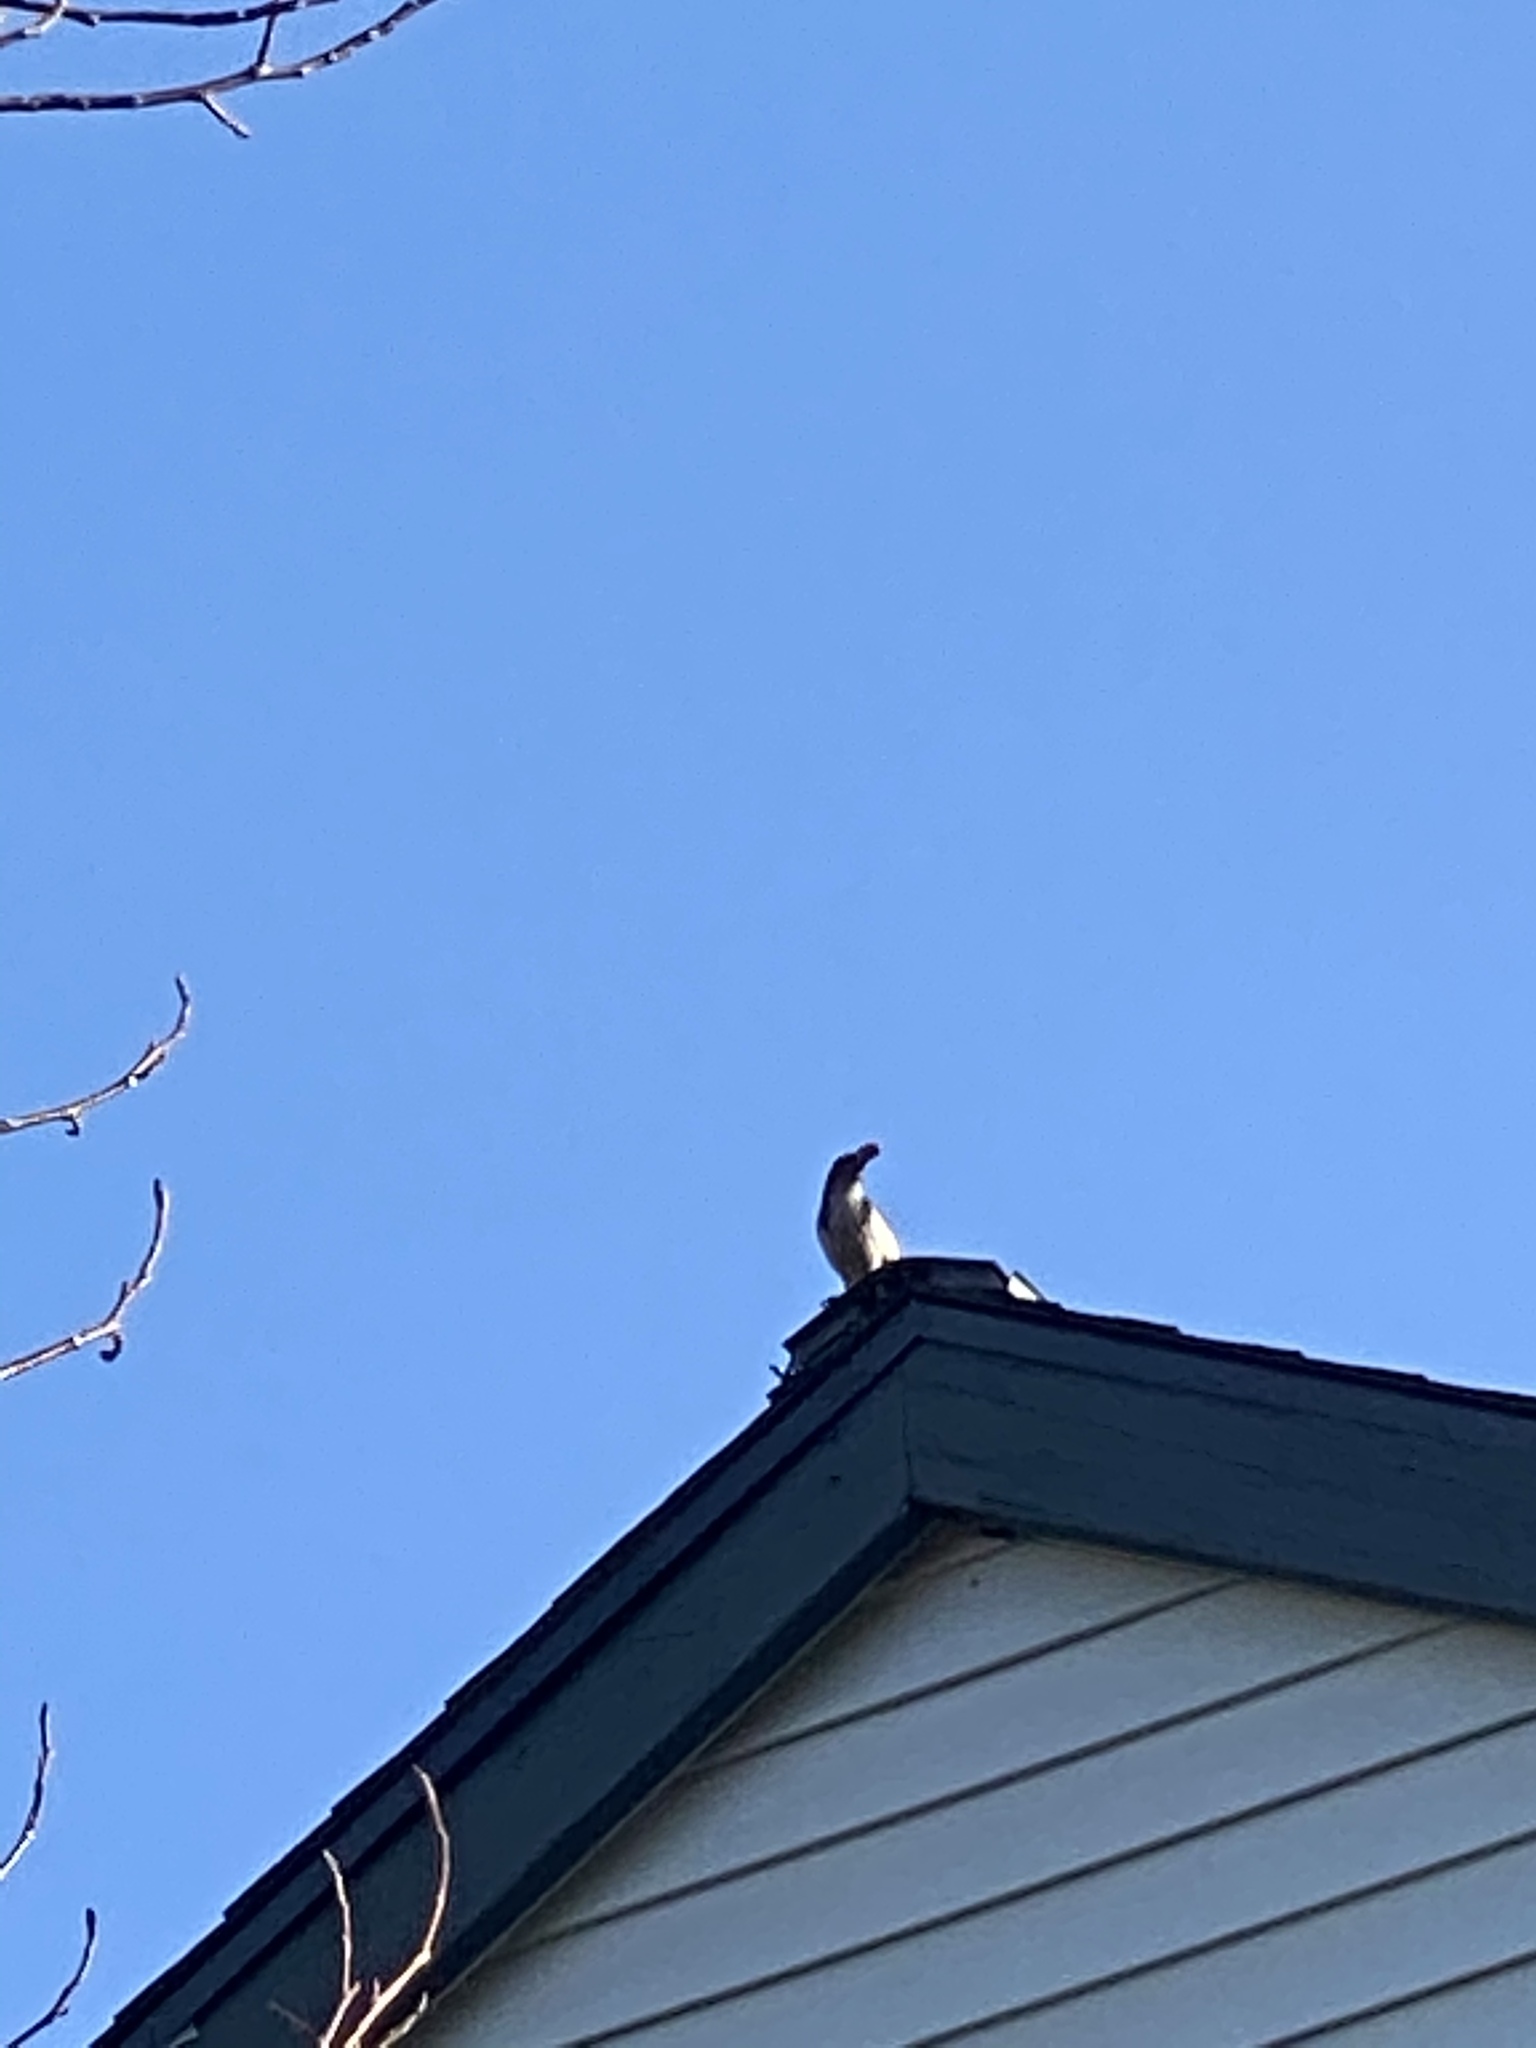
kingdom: Animalia
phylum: Chordata
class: Aves
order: Passeriformes
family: Corvidae
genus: Aphelocoma
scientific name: Aphelocoma californica
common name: California scrub-jay
